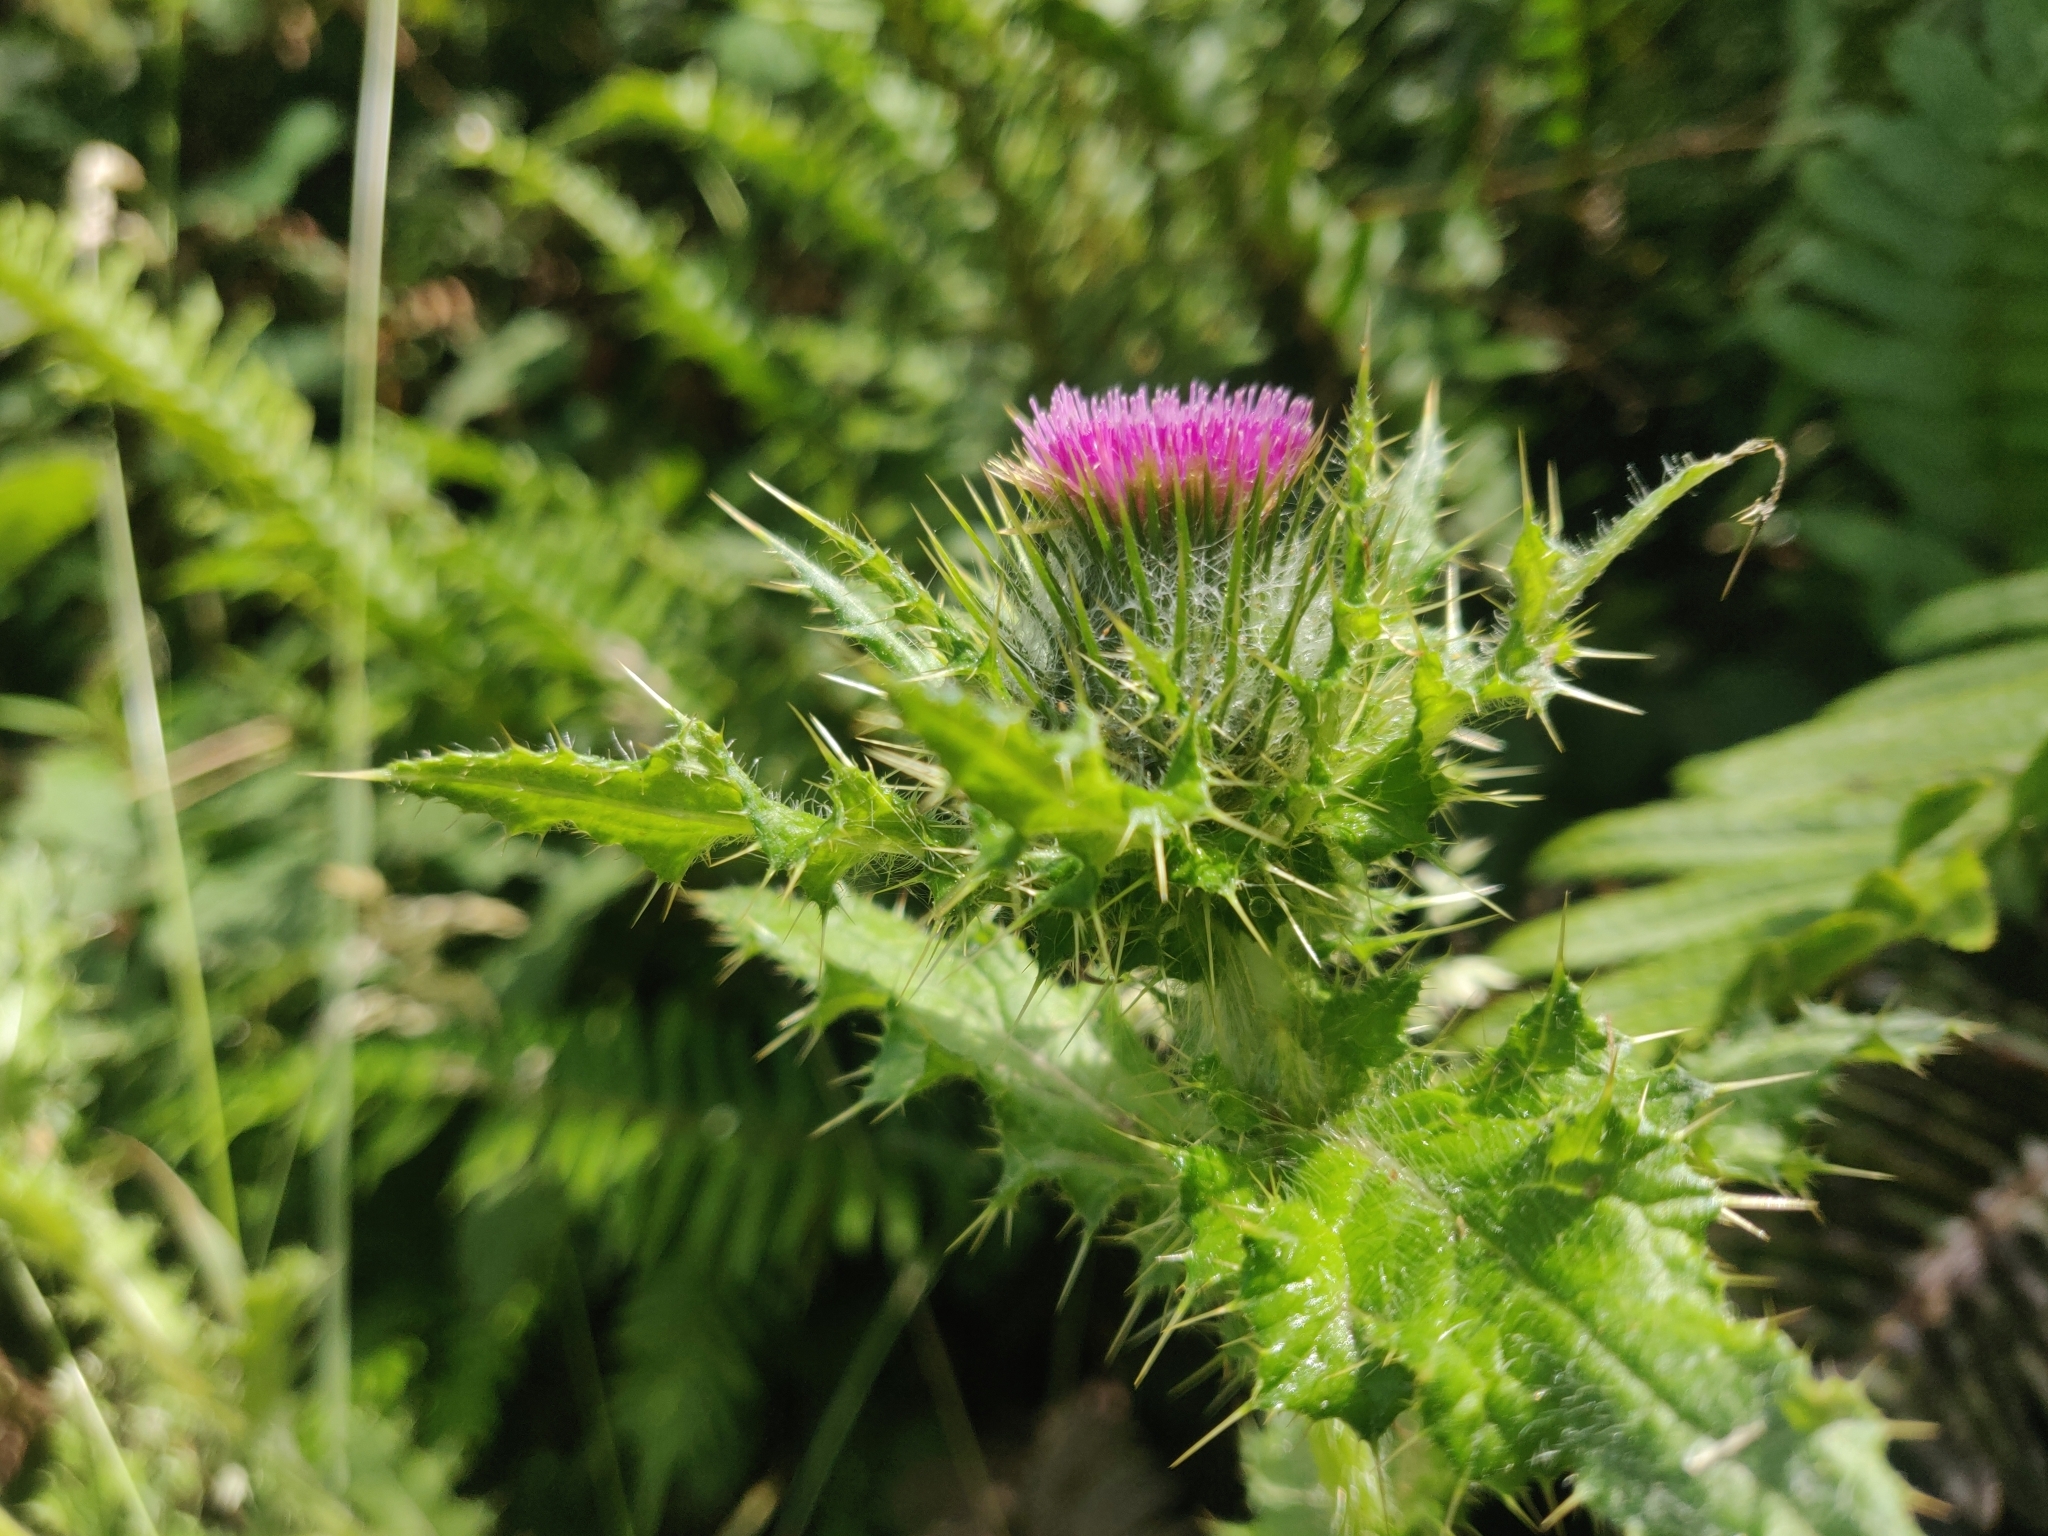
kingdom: Plantae
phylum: Tracheophyta
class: Magnoliopsida
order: Asterales
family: Asteraceae
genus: Cirsium
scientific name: Cirsium brevistylum
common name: Indian thistle
